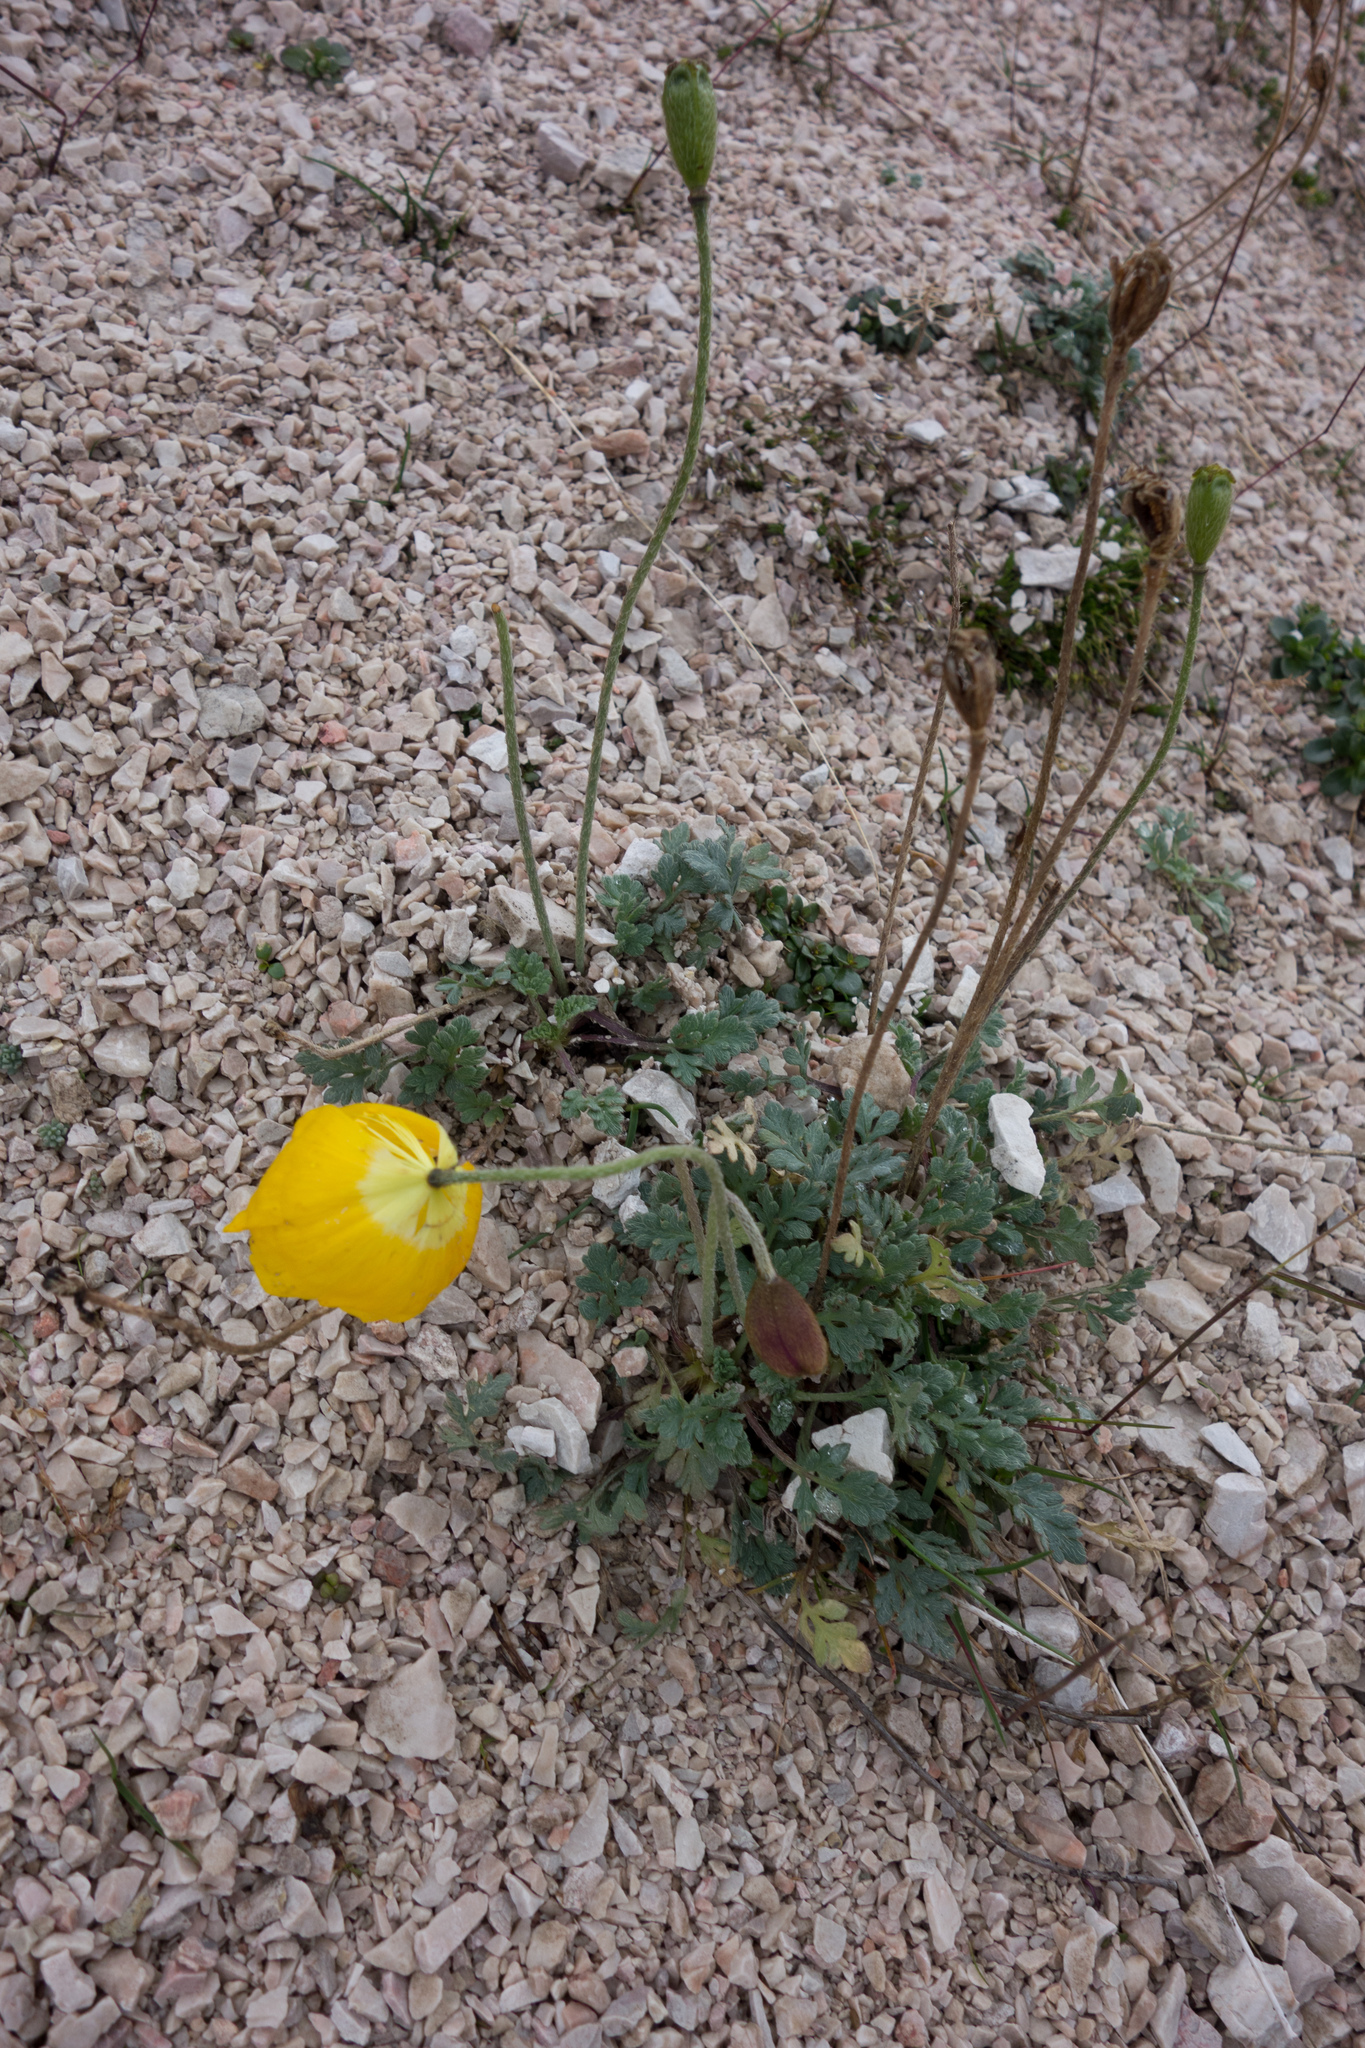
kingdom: Plantae
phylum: Tracheophyta
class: Magnoliopsida
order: Ranunculales
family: Papaveraceae
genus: Papaver
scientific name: Papaver alpinum
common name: Austrian poppy
